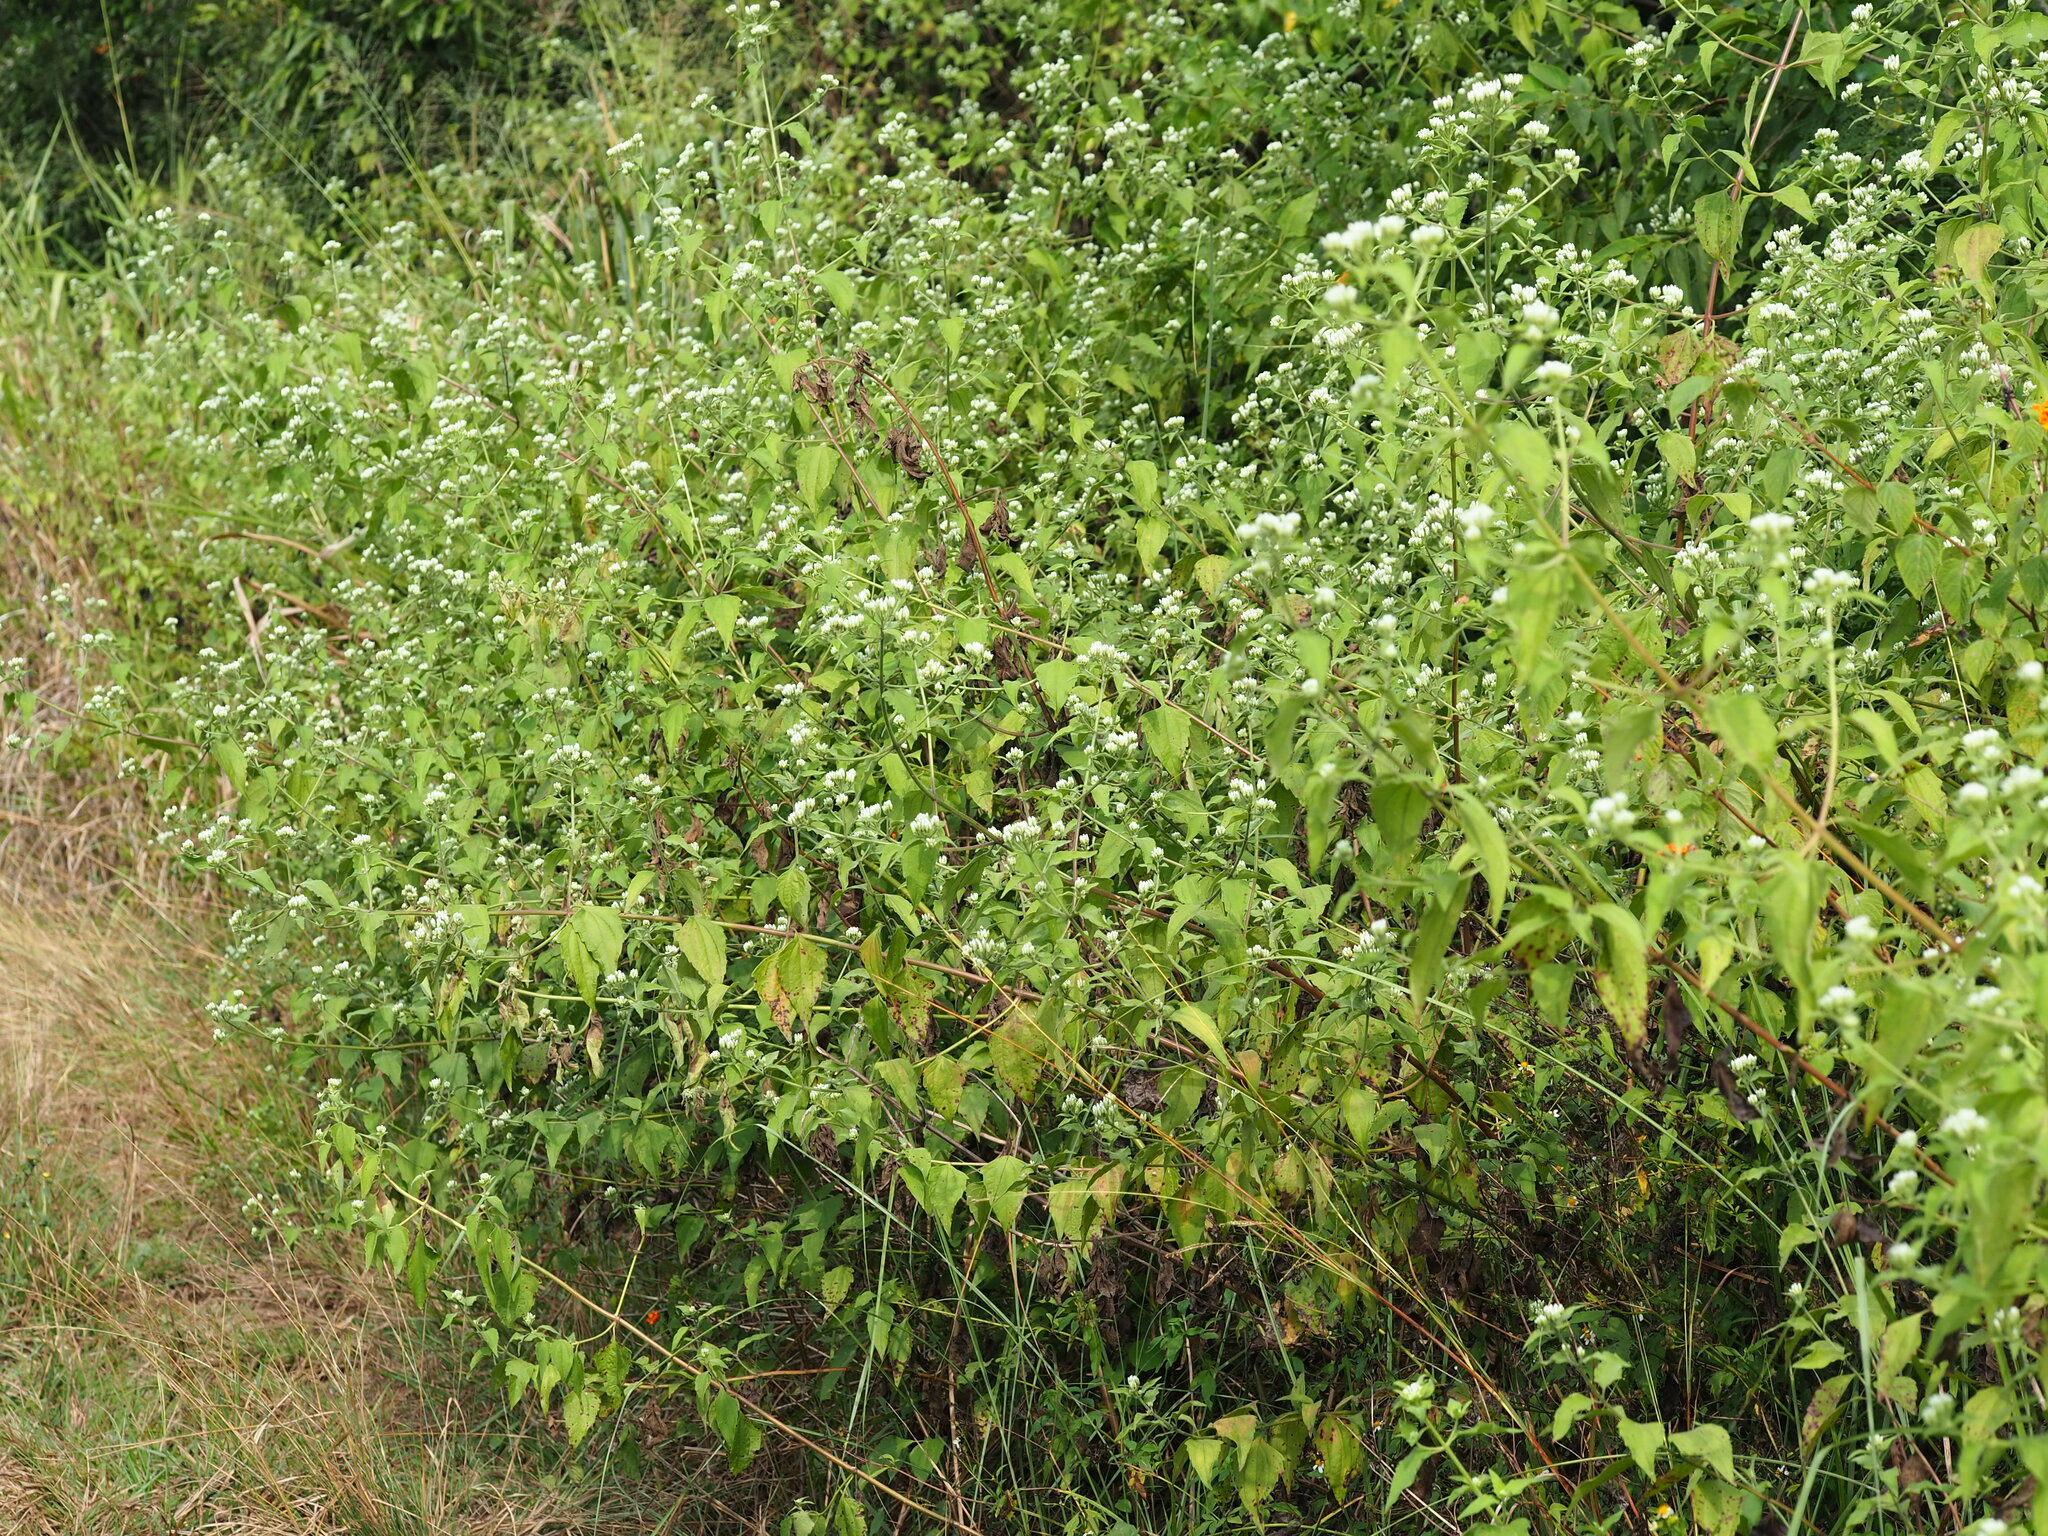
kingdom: Plantae
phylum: Tracheophyta
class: Magnoliopsida
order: Asterales
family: Asteraceae
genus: Chromolaena
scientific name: Chromolaena odorata
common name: Siamweed
